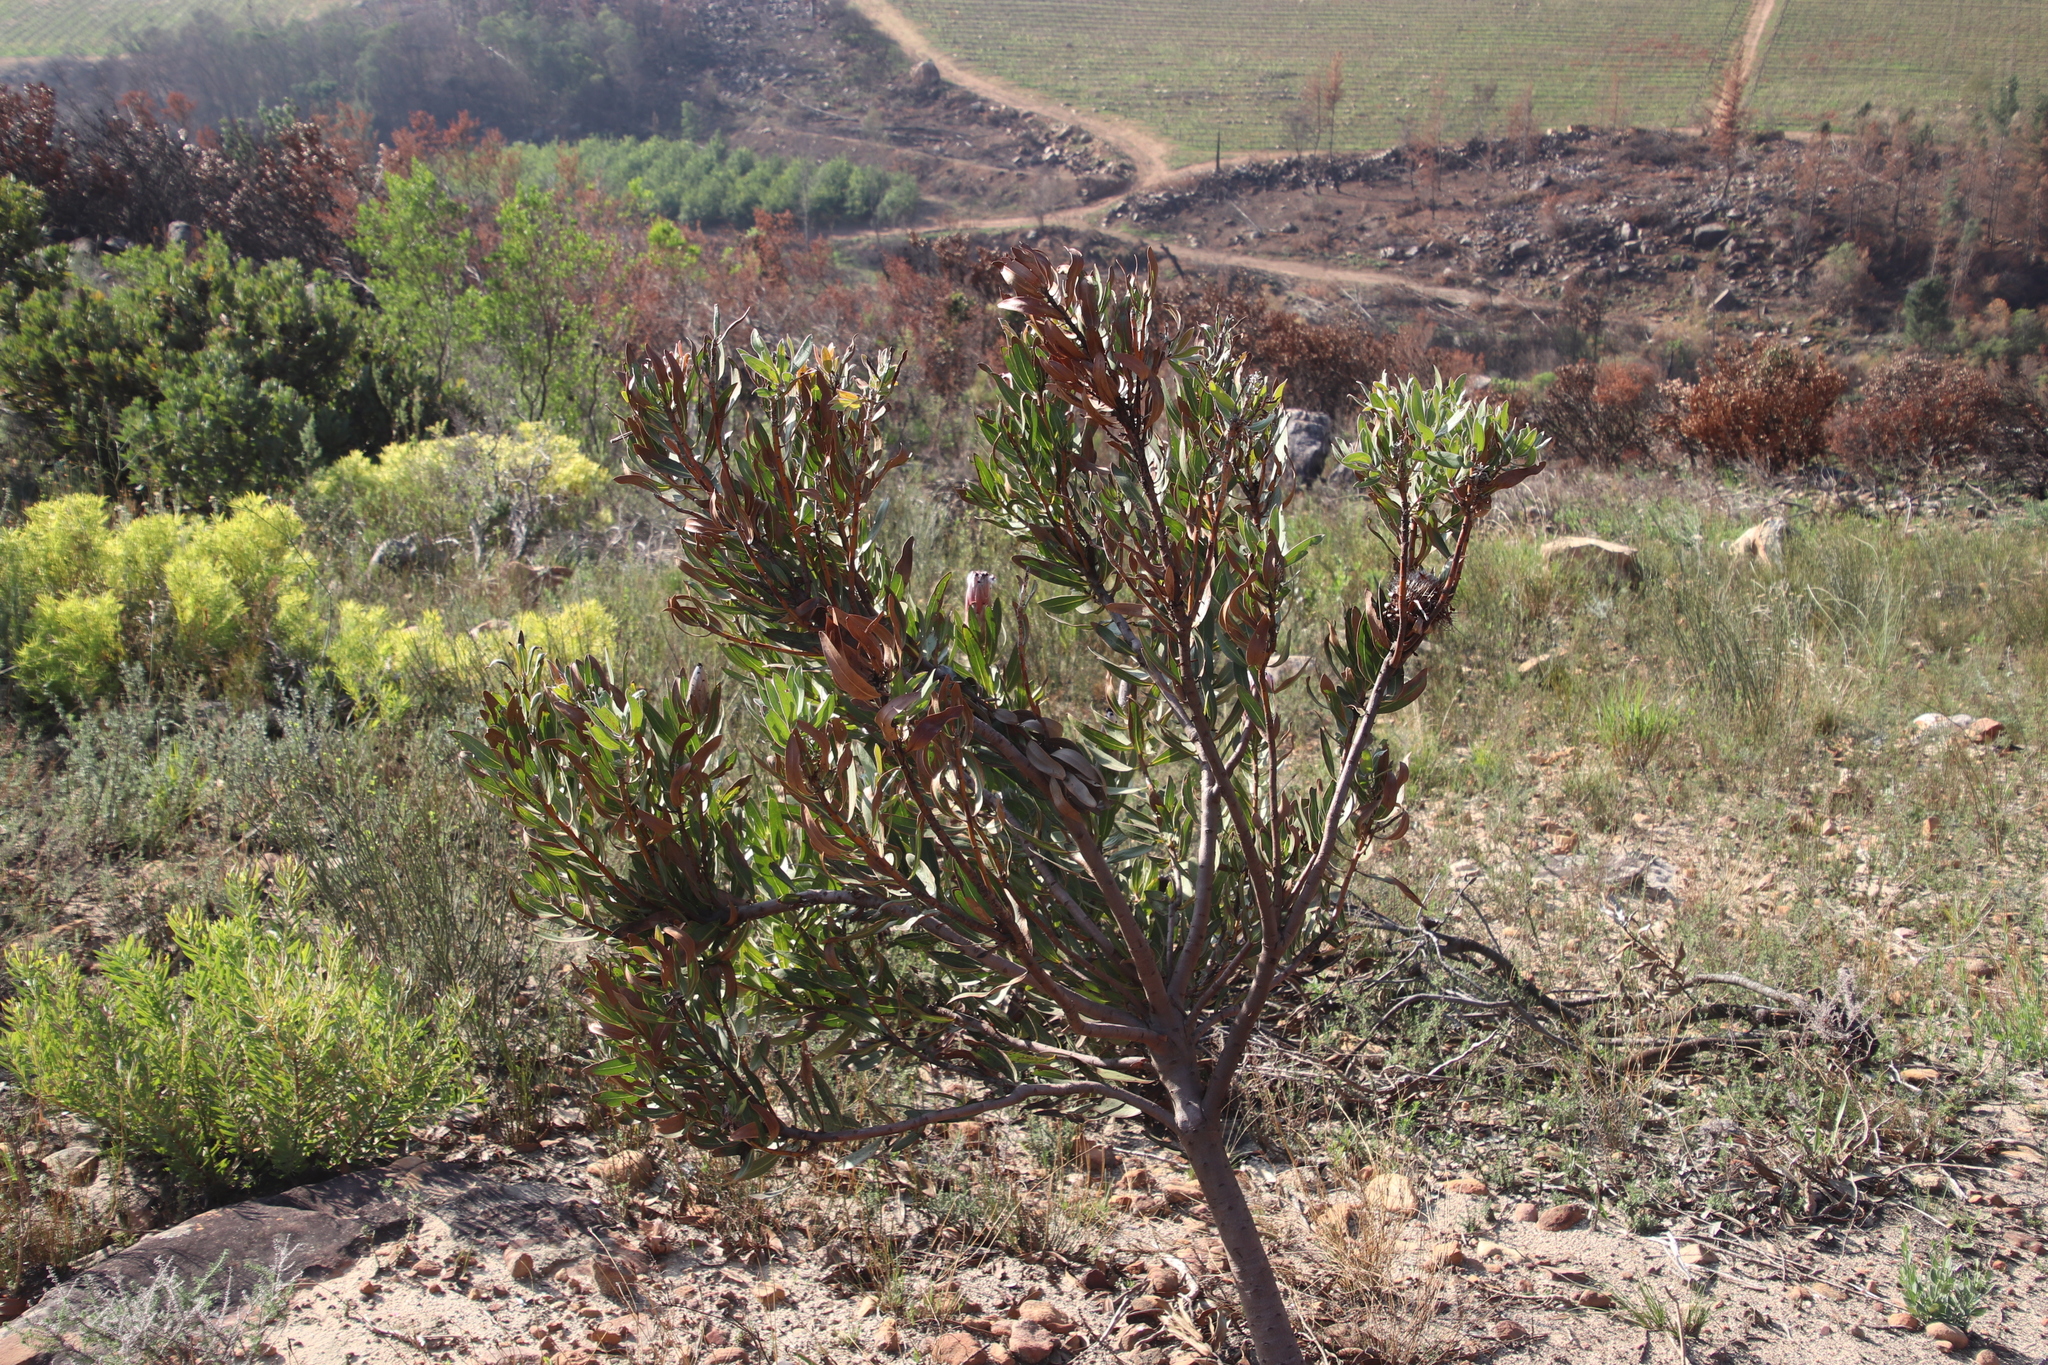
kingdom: Plantae
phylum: Tracheophyta
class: Magnoliopsida
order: Proteales
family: Proteaceae
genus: Protea
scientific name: Protea laurifolia
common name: Grey-leaf sugarbsh
